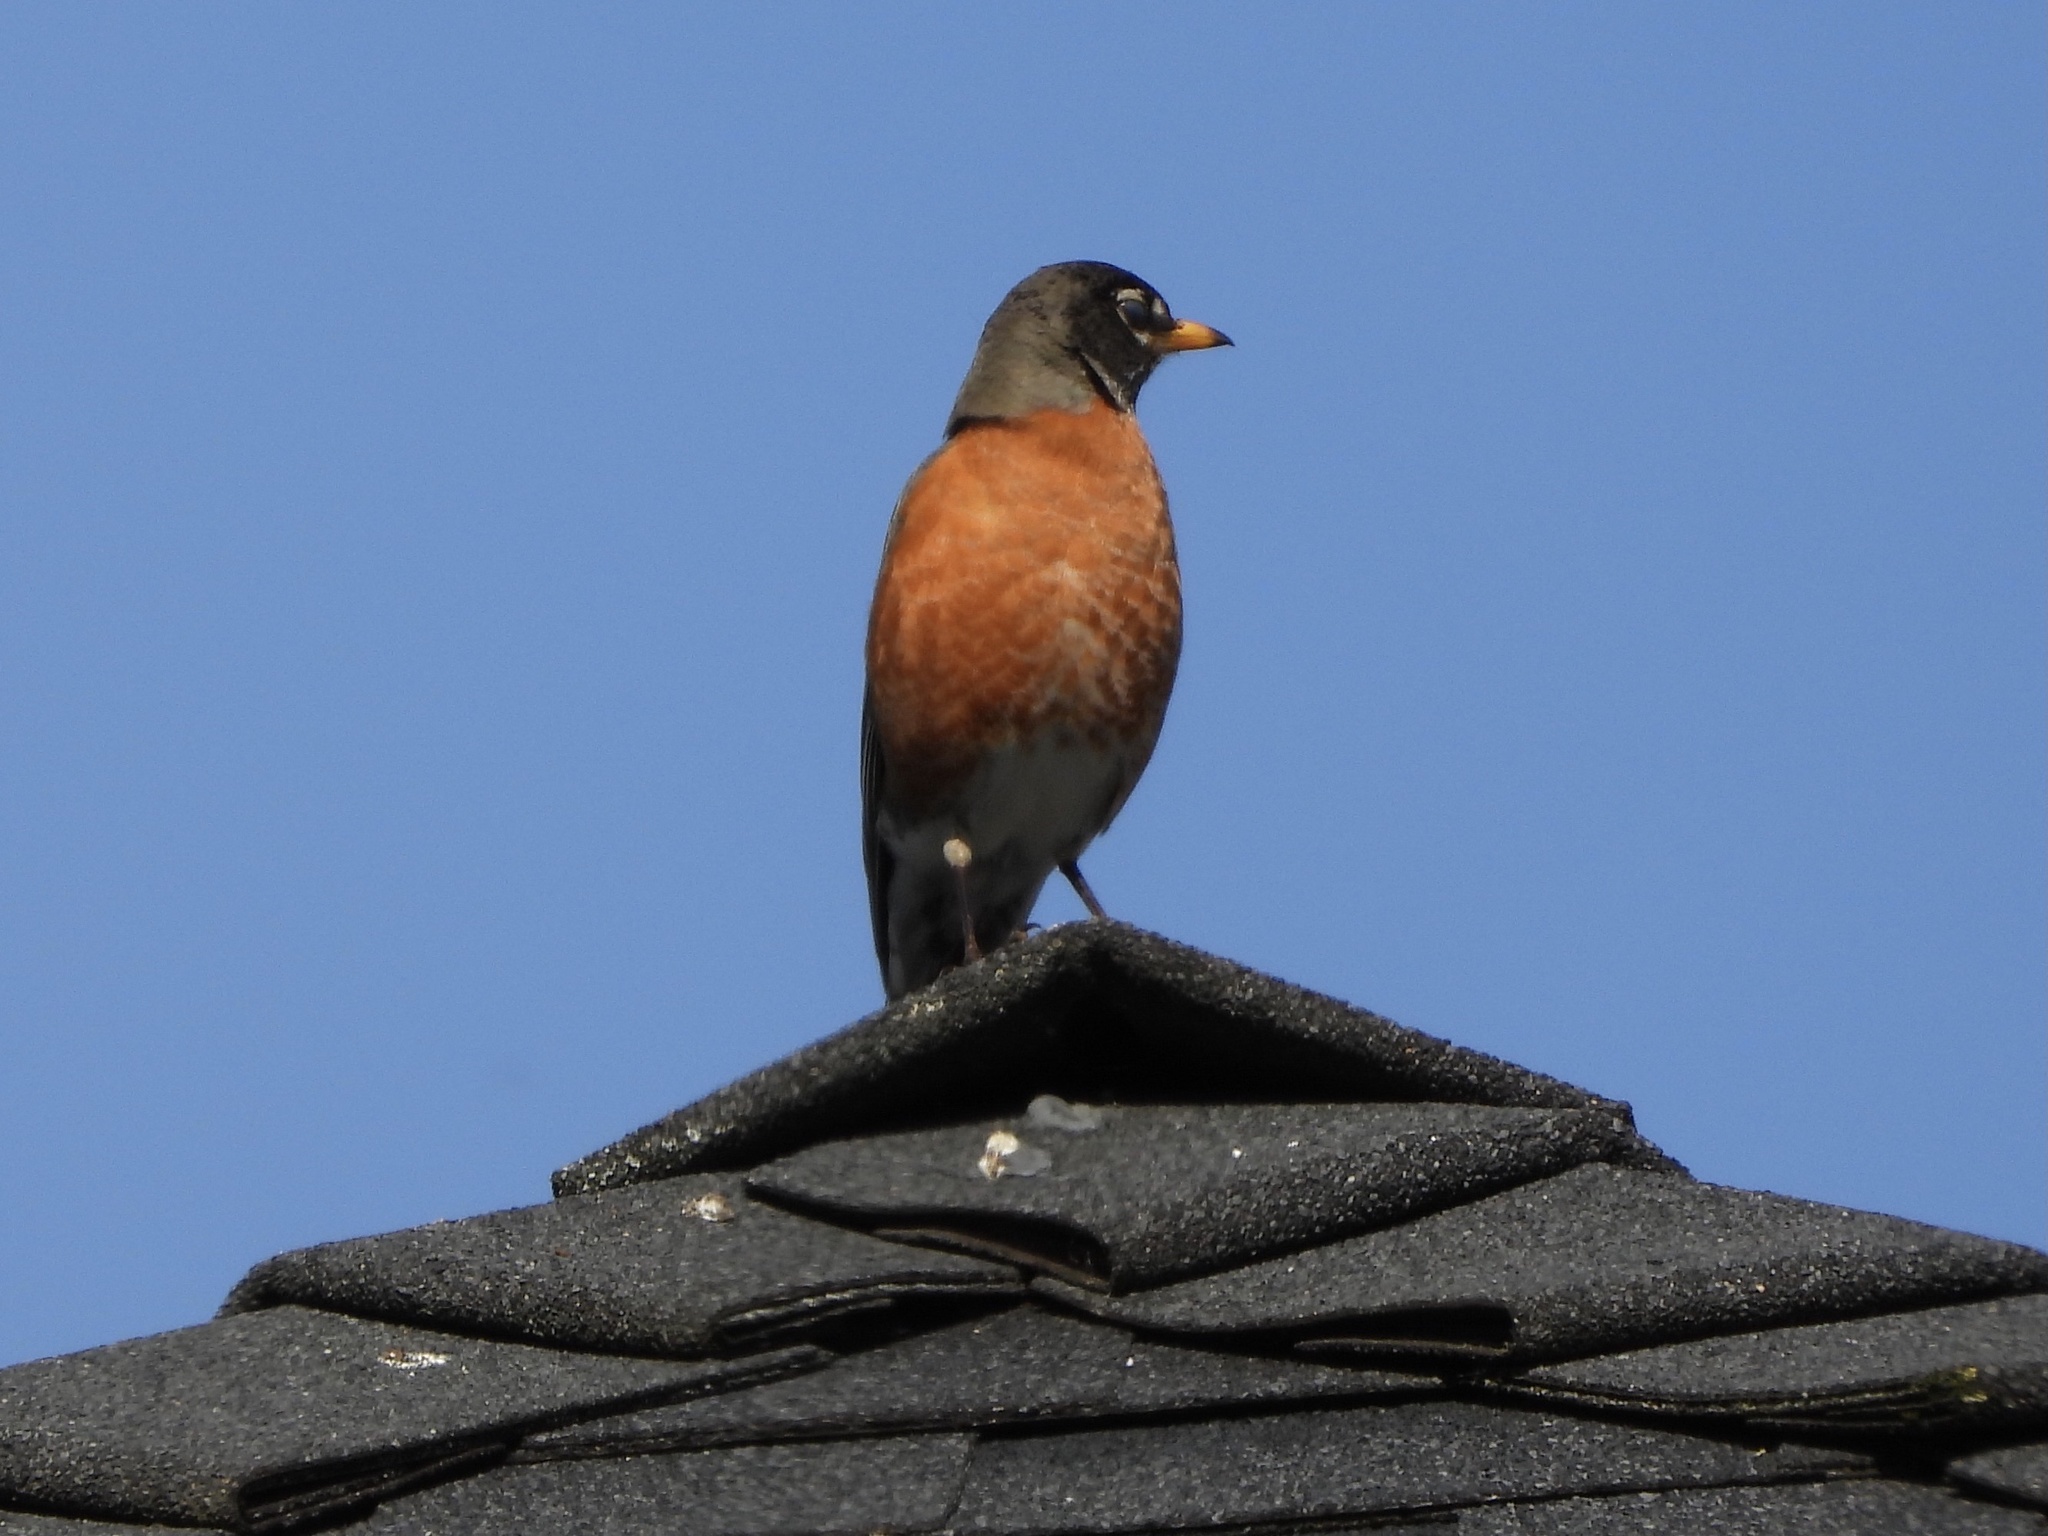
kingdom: Animalia
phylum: Chordata
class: Aves
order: Passeriformes
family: Turdidae
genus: Turdus
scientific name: Turdus migratorius
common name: American robin
